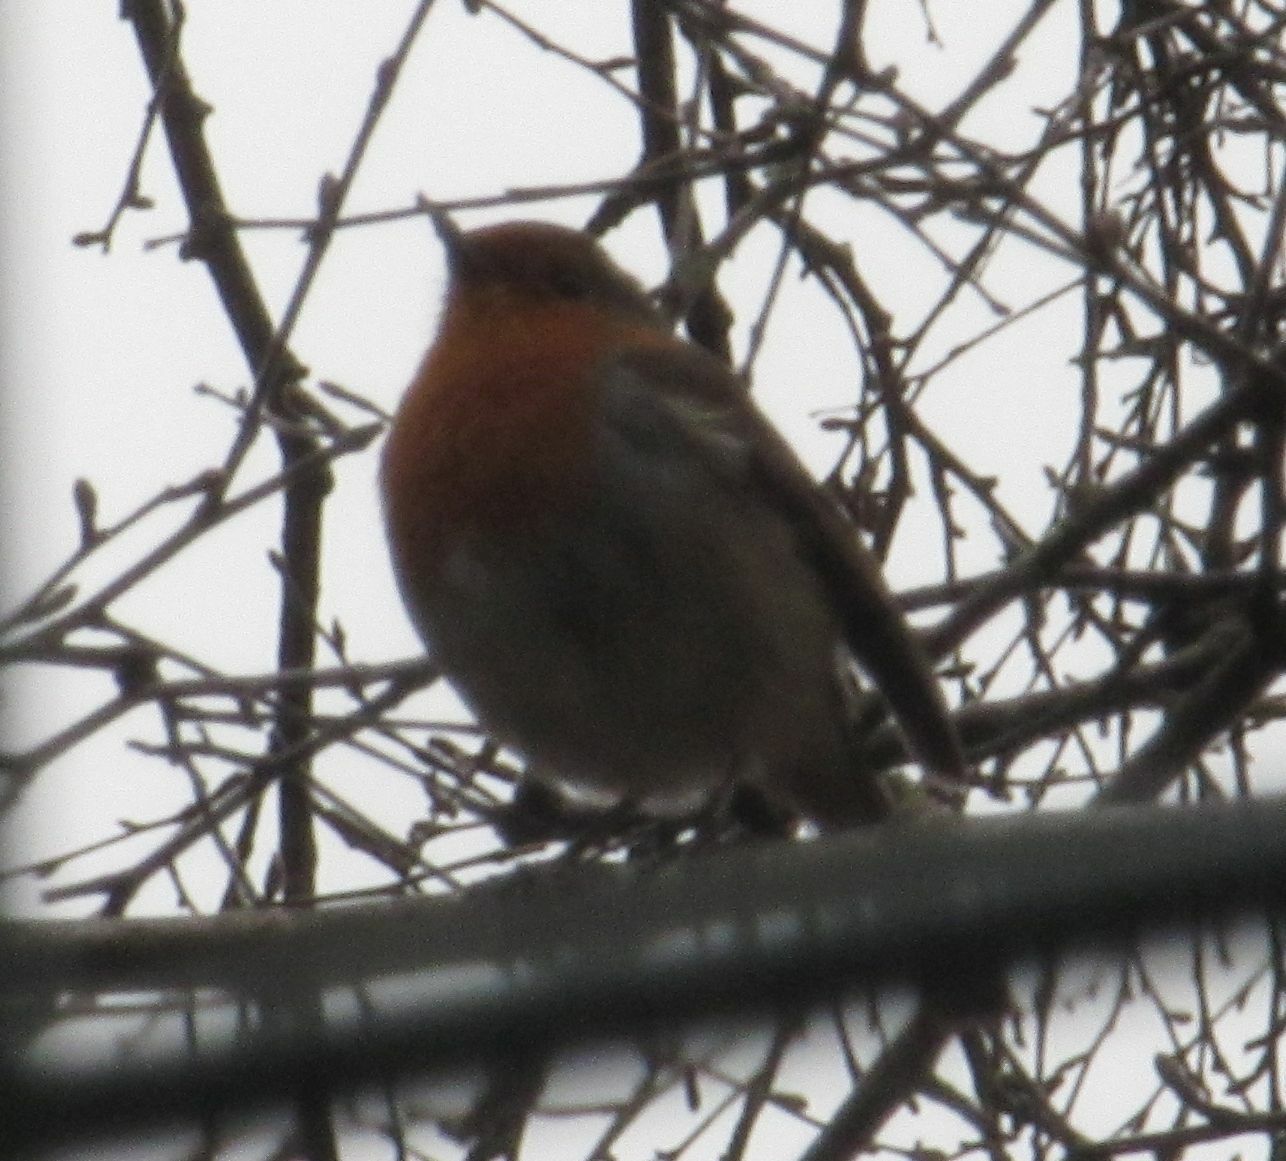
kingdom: Animalia
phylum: Chordata
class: Aves
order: Passeriformes
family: Muscicapidae
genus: Erithacus
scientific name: Erithacus rubecula
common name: European robin
